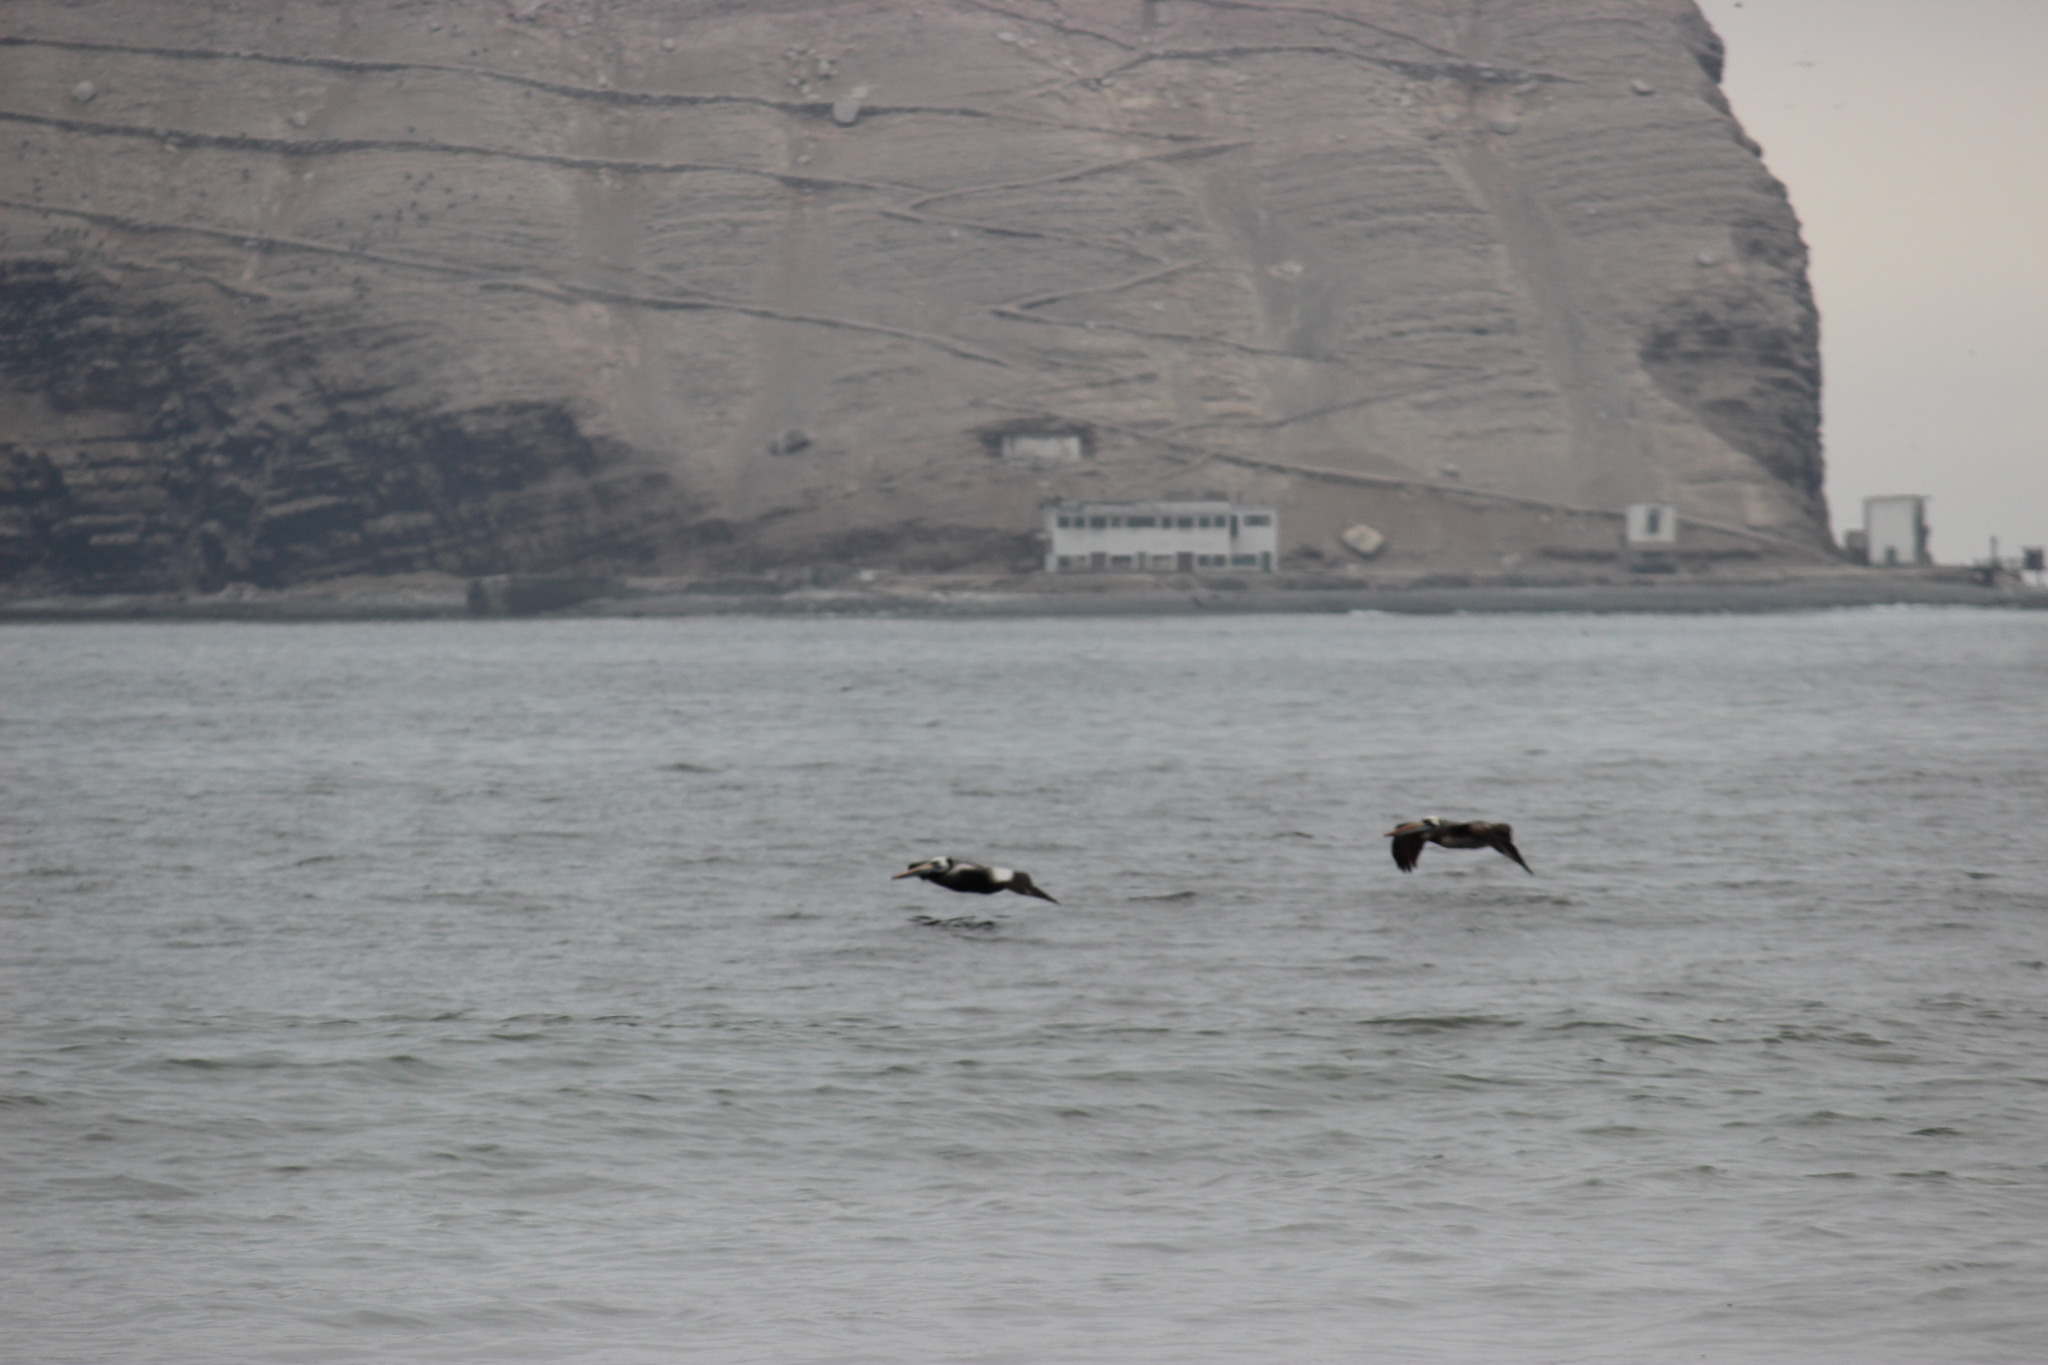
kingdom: Animalia
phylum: Chordata
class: Aves
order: Pelecaniformes
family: Pelecanidae
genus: Pelecanus
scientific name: Pelecanus thagus
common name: Peruvian pelican
